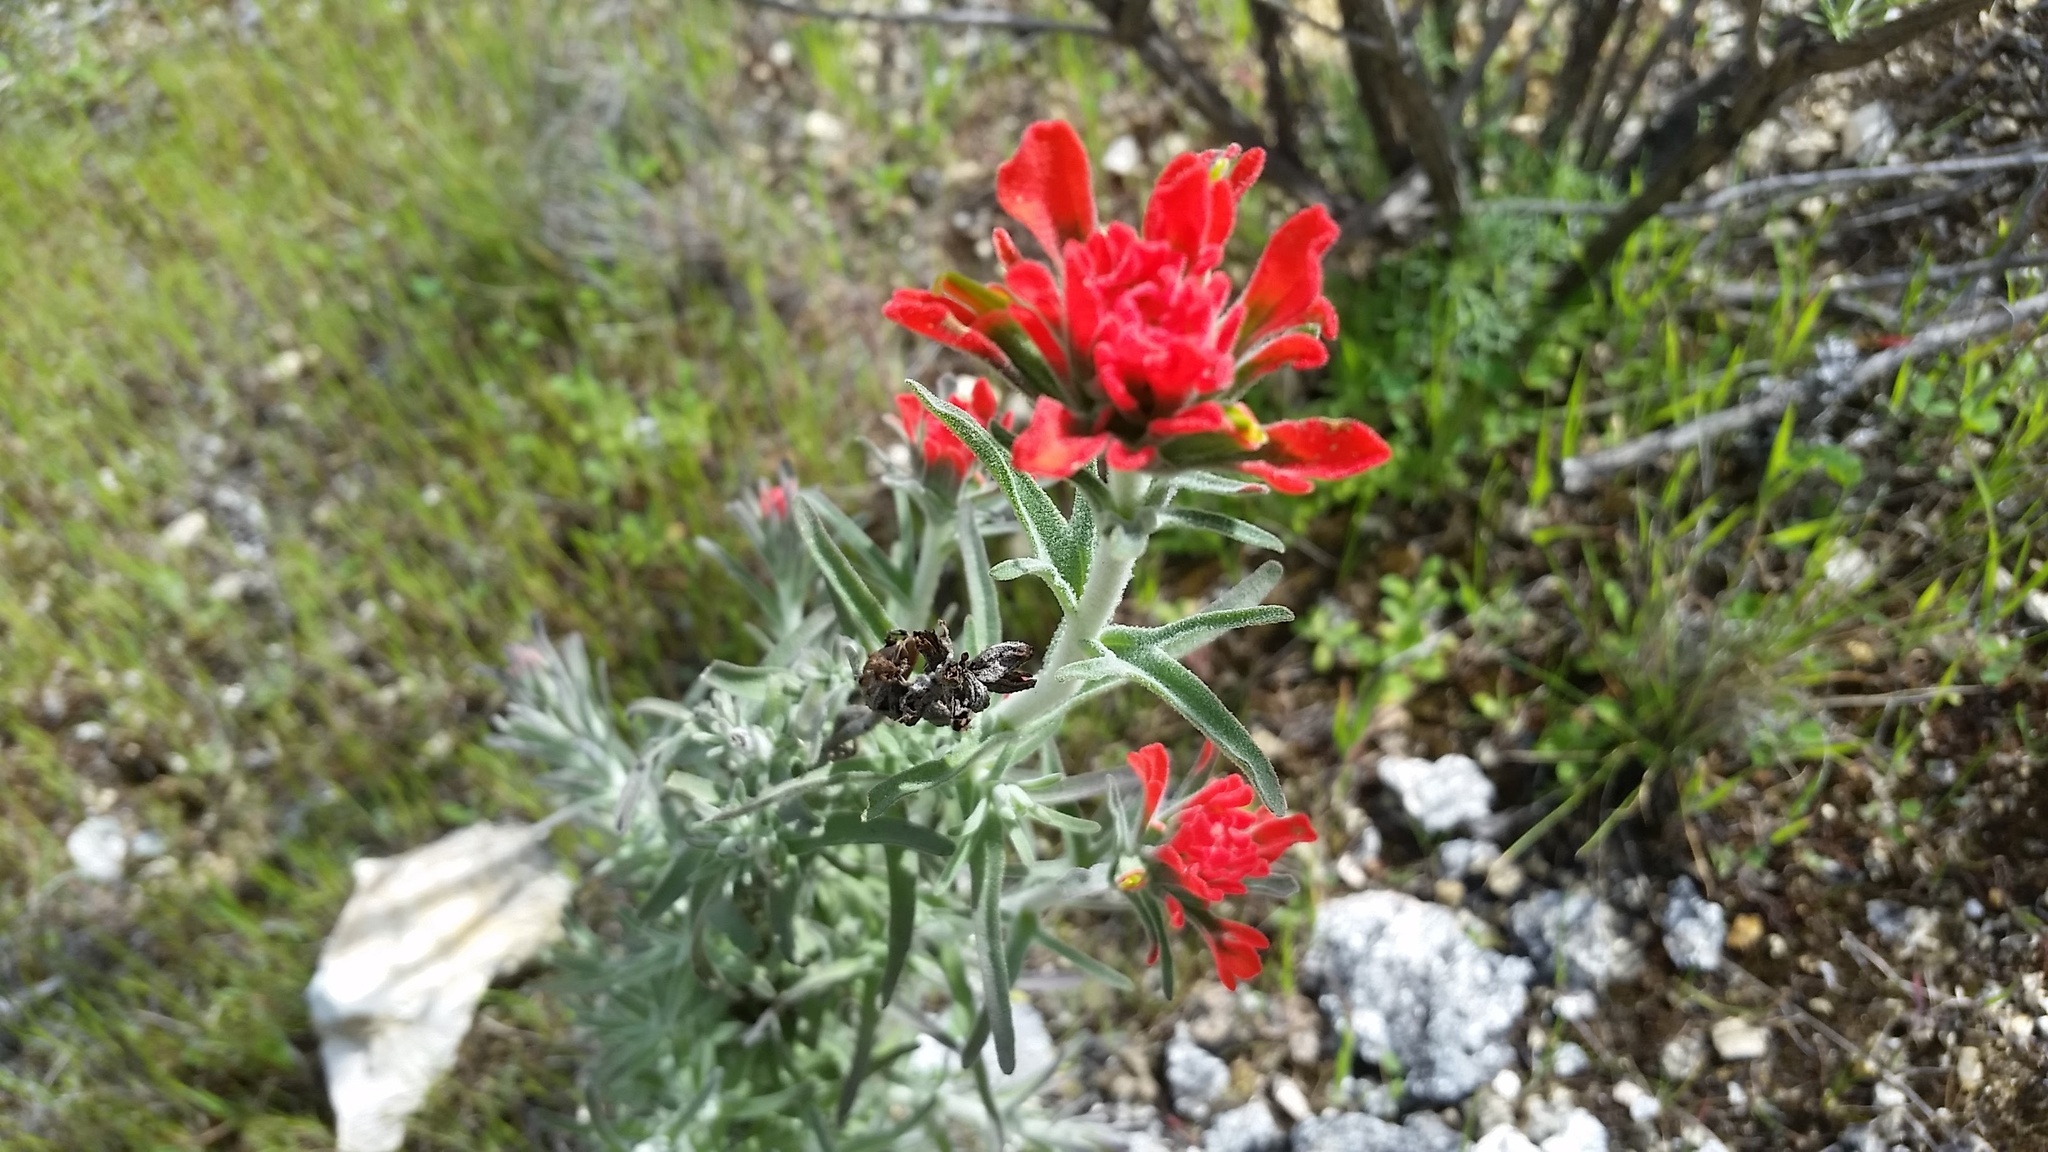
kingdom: Plantae
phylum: Tracheophyta
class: Magnoliopsida
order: Lamiales
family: Orobanchaceae
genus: Castilleja
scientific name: Castilleja foliolosa
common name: Woolly indian paintbrush
